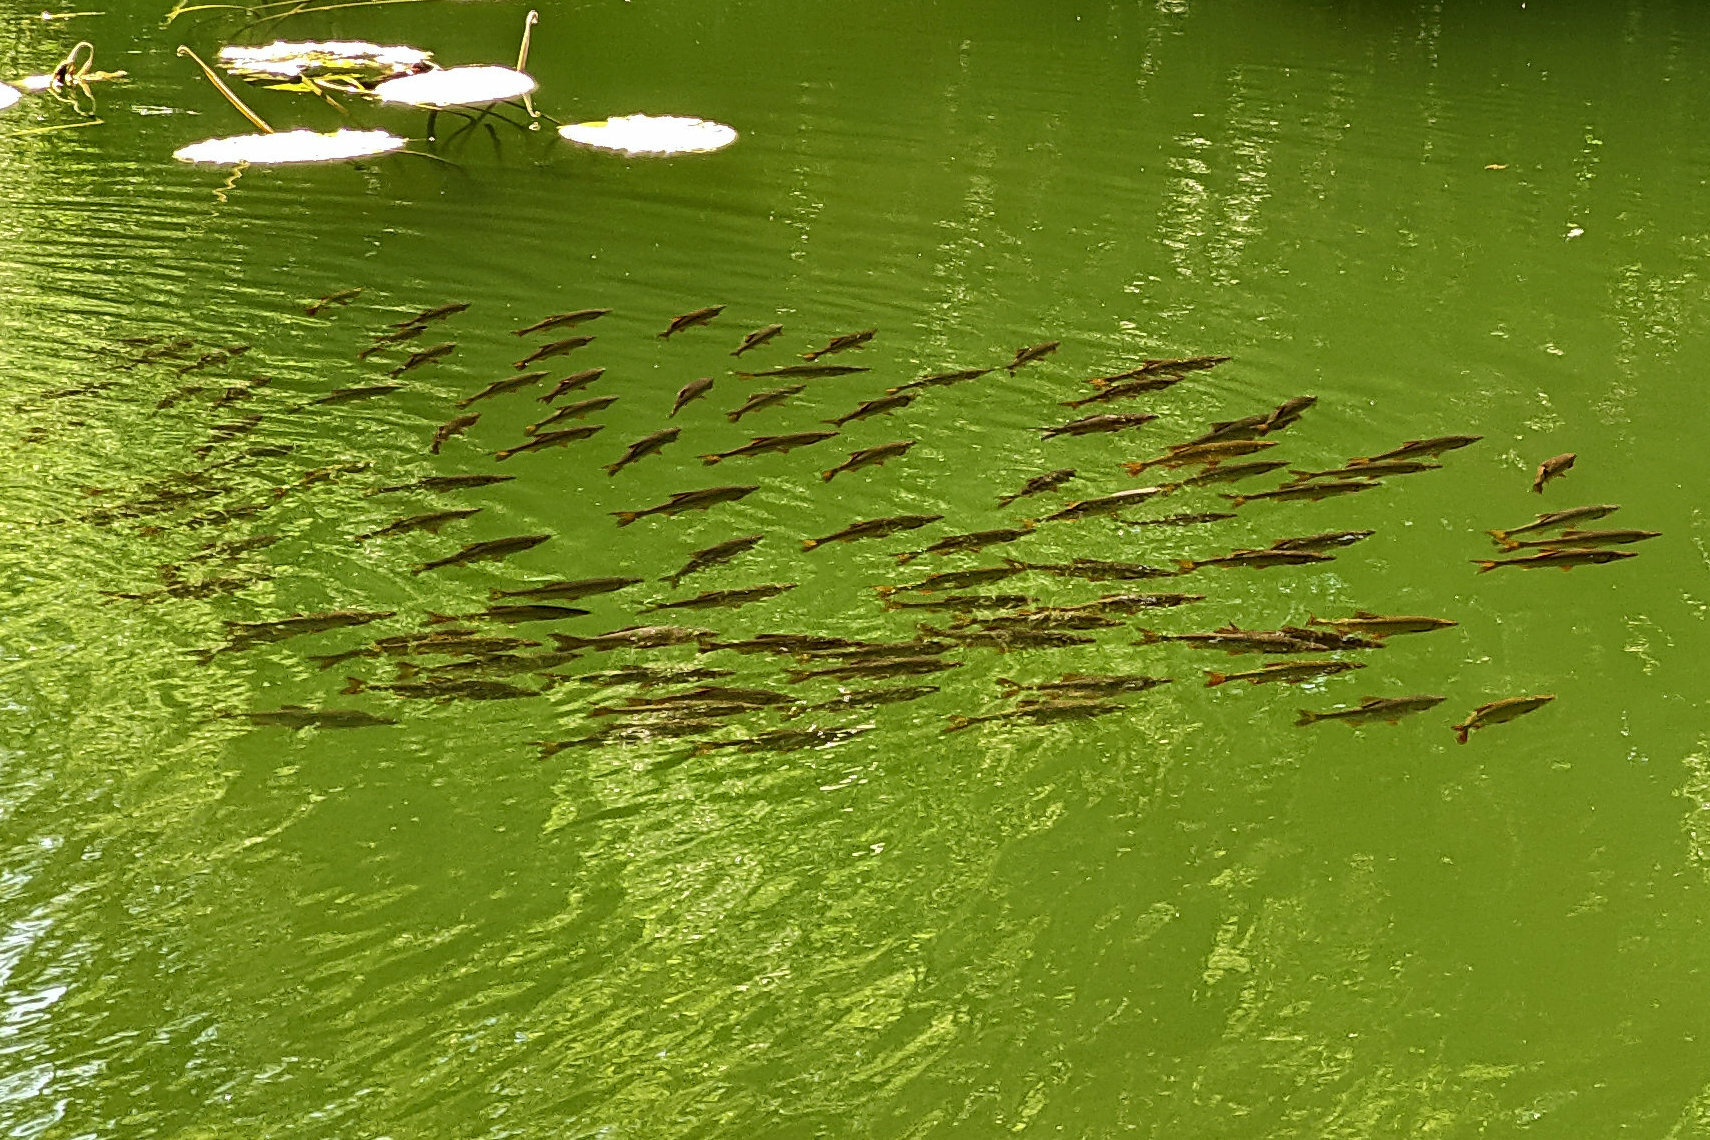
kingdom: Animalia
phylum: Chordata
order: Cypriniformes
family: Cyprinidae
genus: Rutilus
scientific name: Rutilus rutilus
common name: Roach
